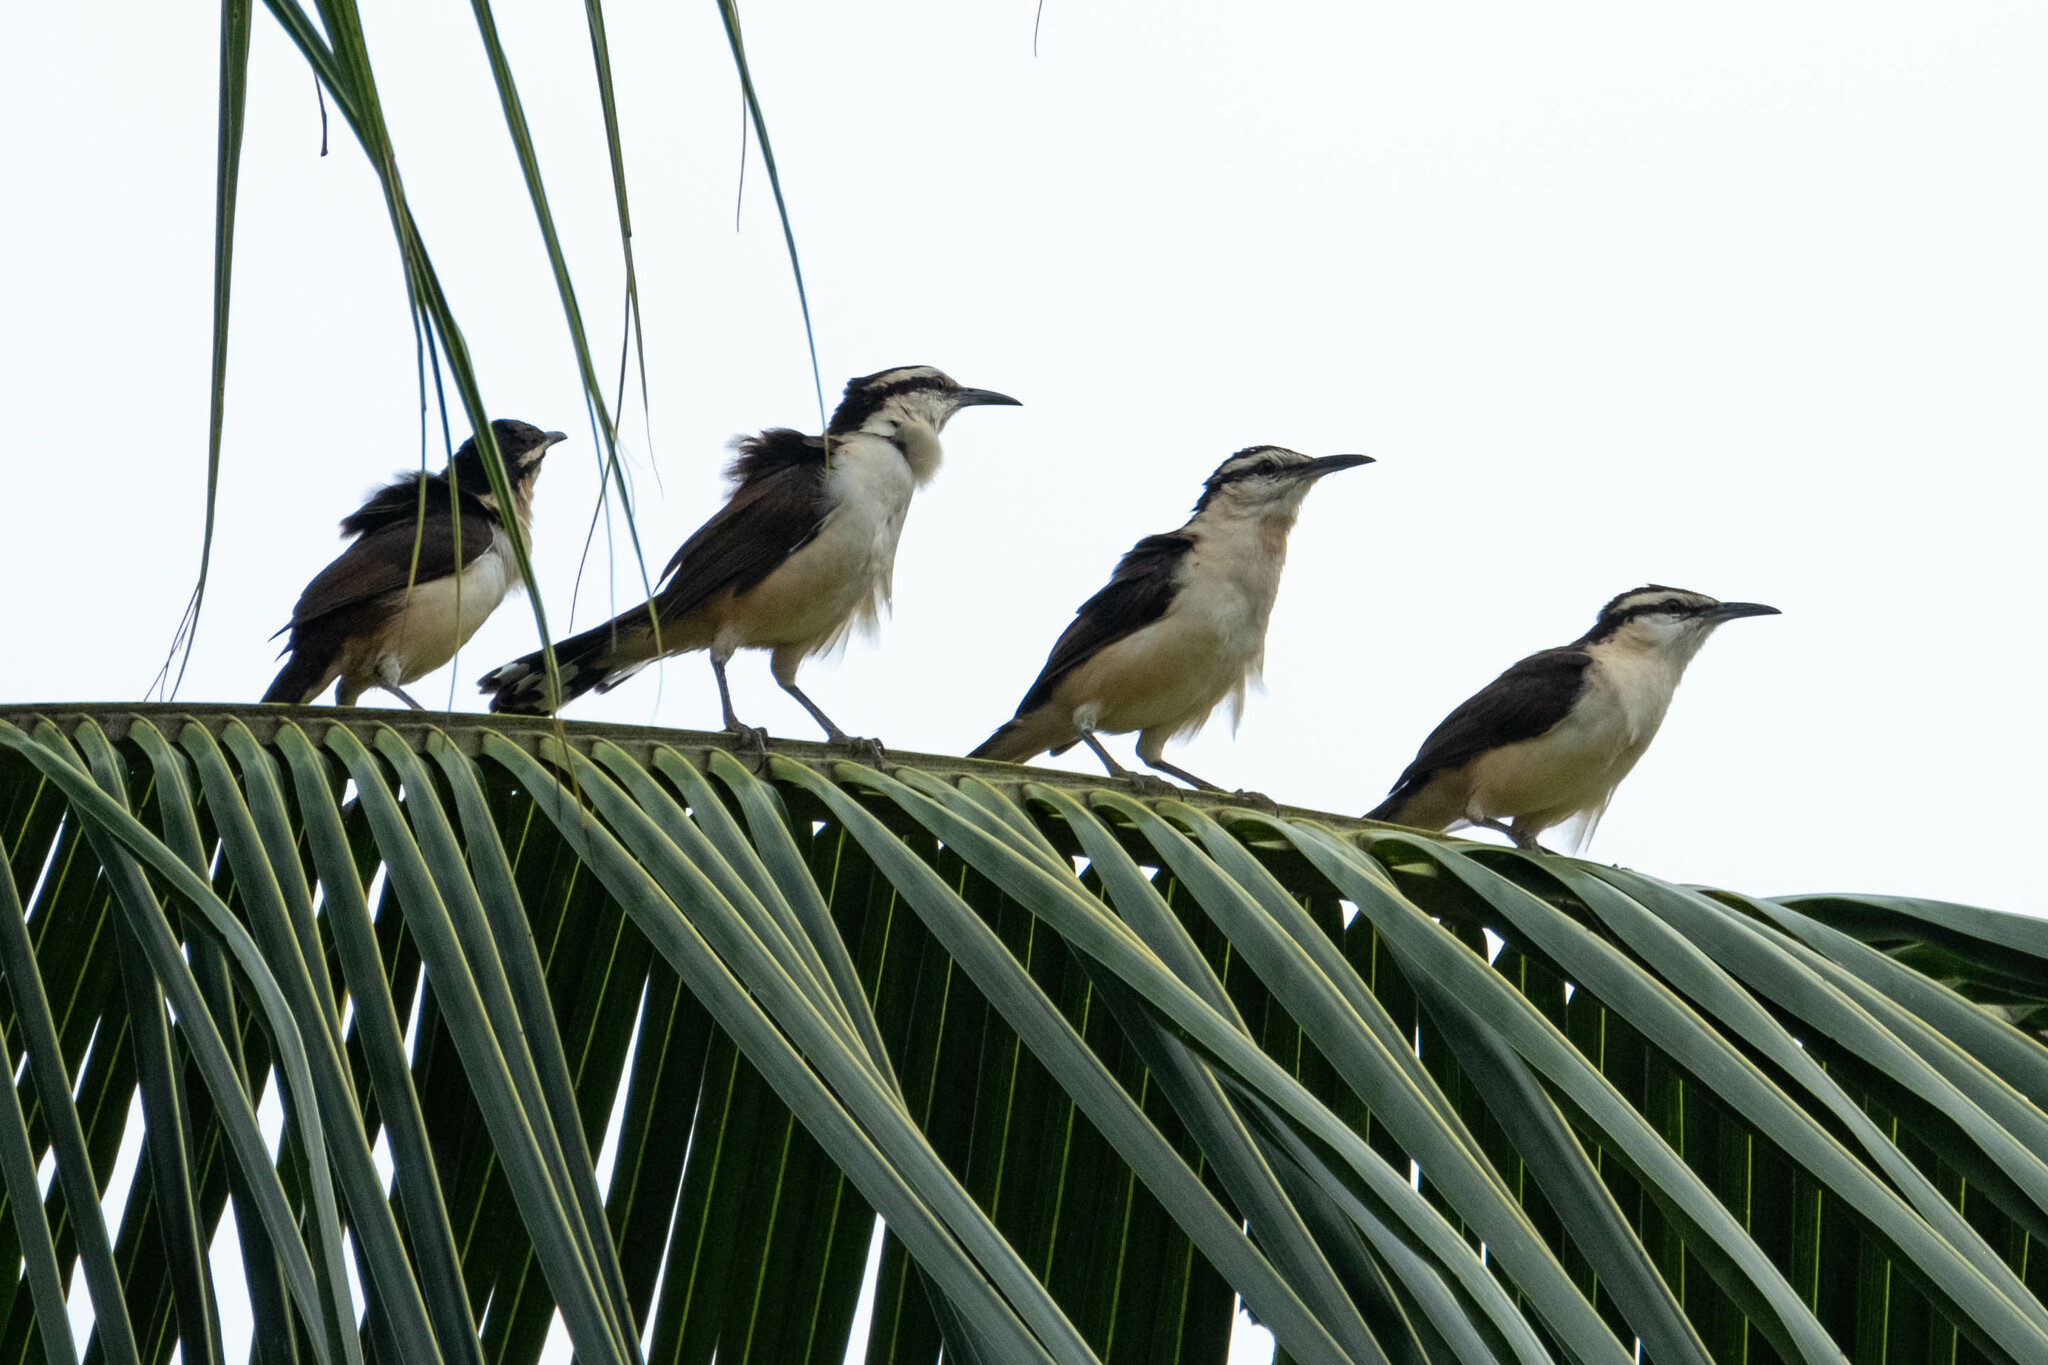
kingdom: Animalia
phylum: Chordata
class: Aves
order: Passeriformes
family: Troglodytidae
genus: Campylorhynchus
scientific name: Campylorhynchus griseus
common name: Bicolored wren
